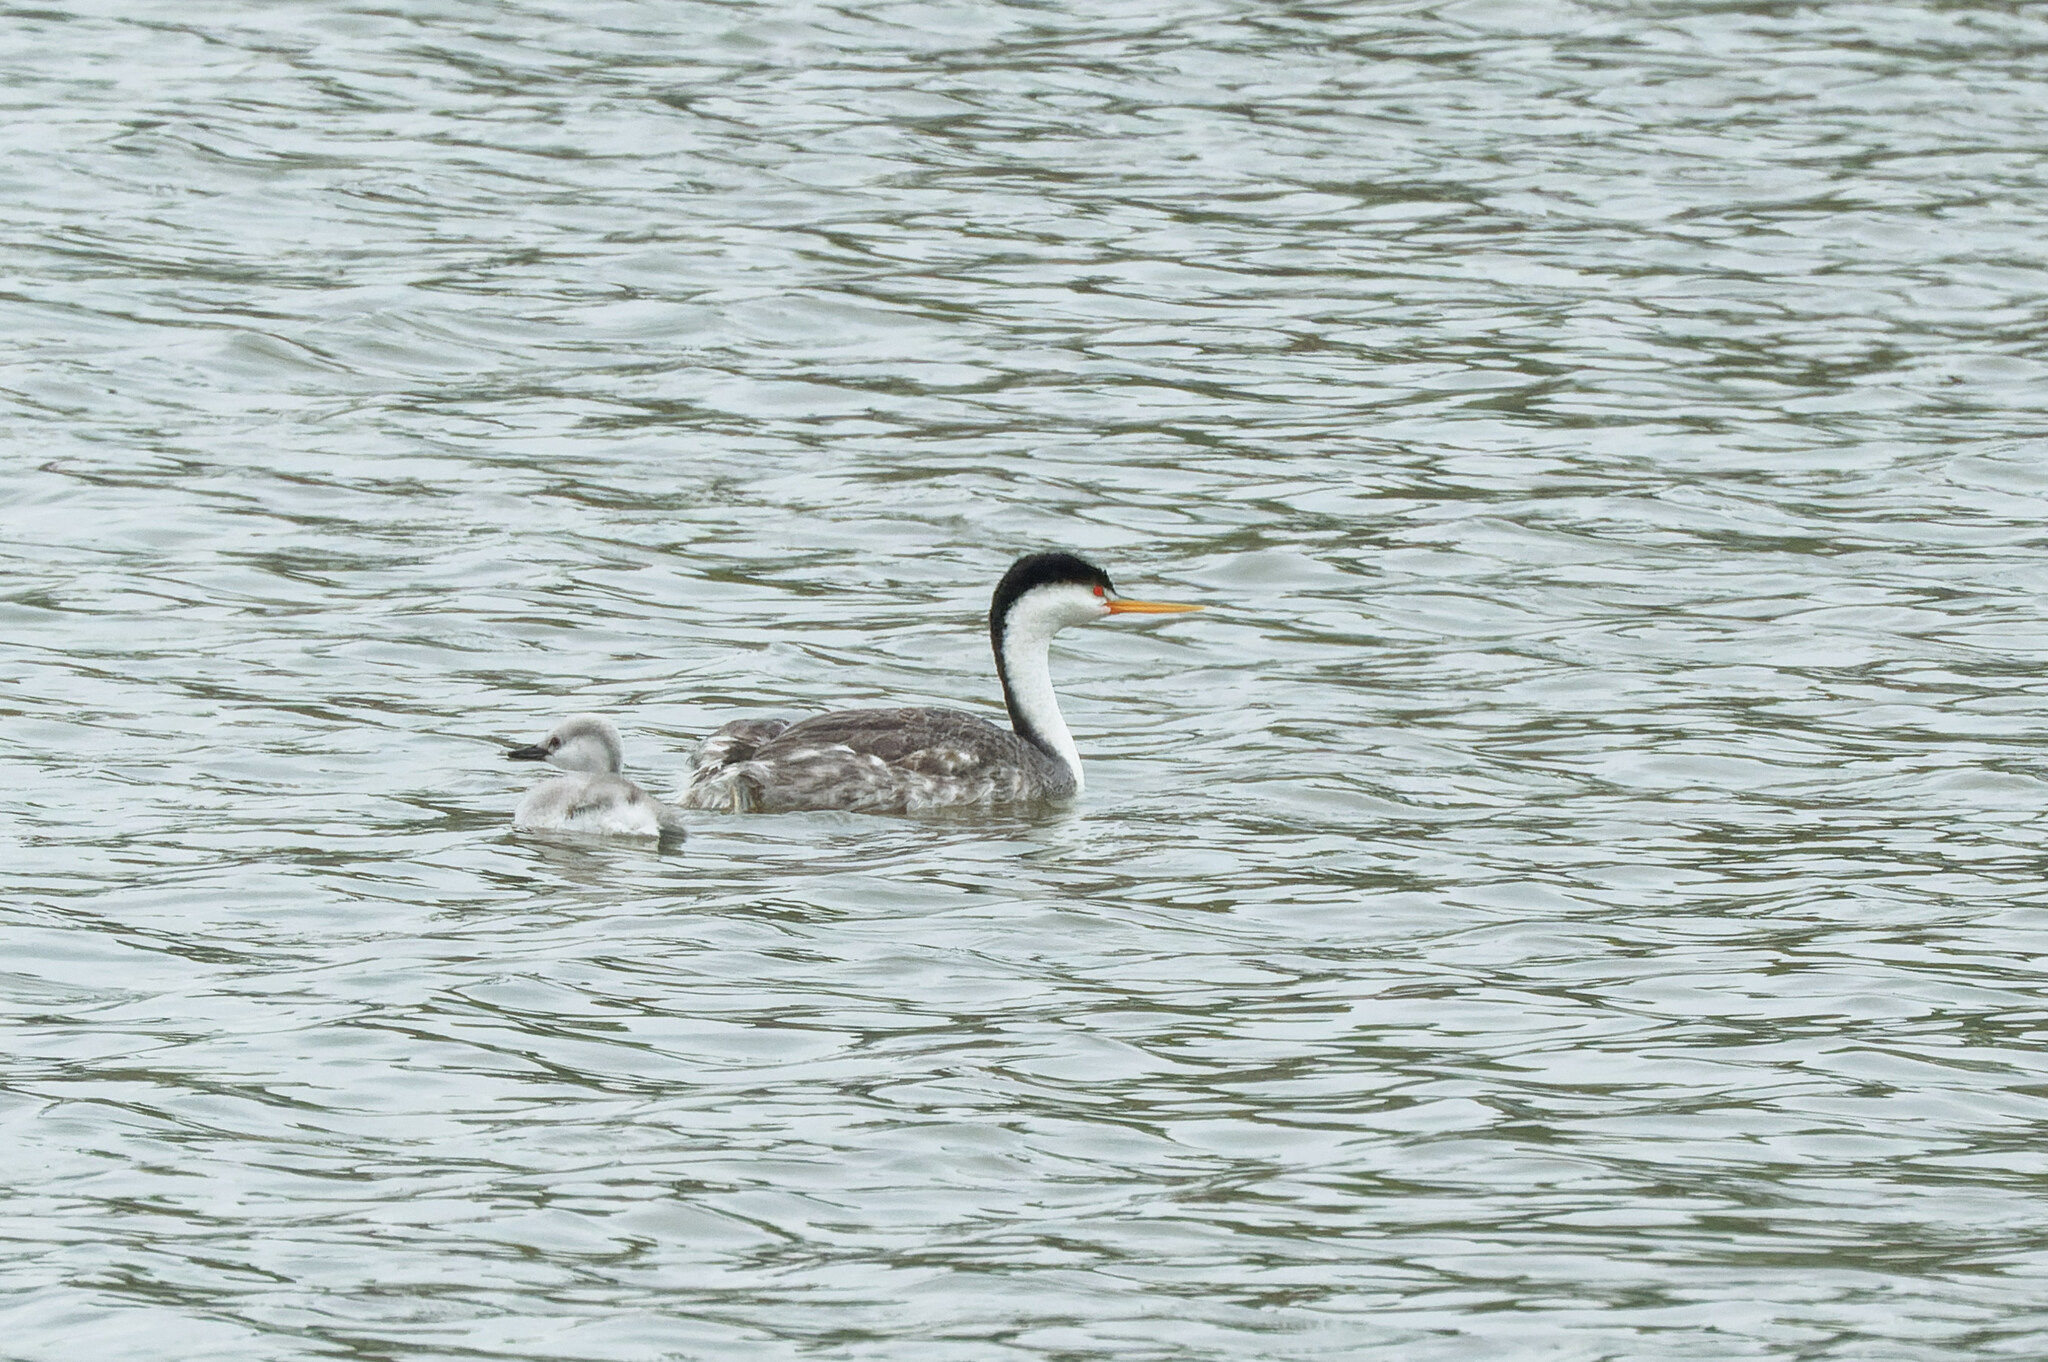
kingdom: Animalia
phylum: Chordata
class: Aves
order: Podicipediformes
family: Podicipedidae
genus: Aechmophorus
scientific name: Aechmophorus clarkii
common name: Clark's grebe
